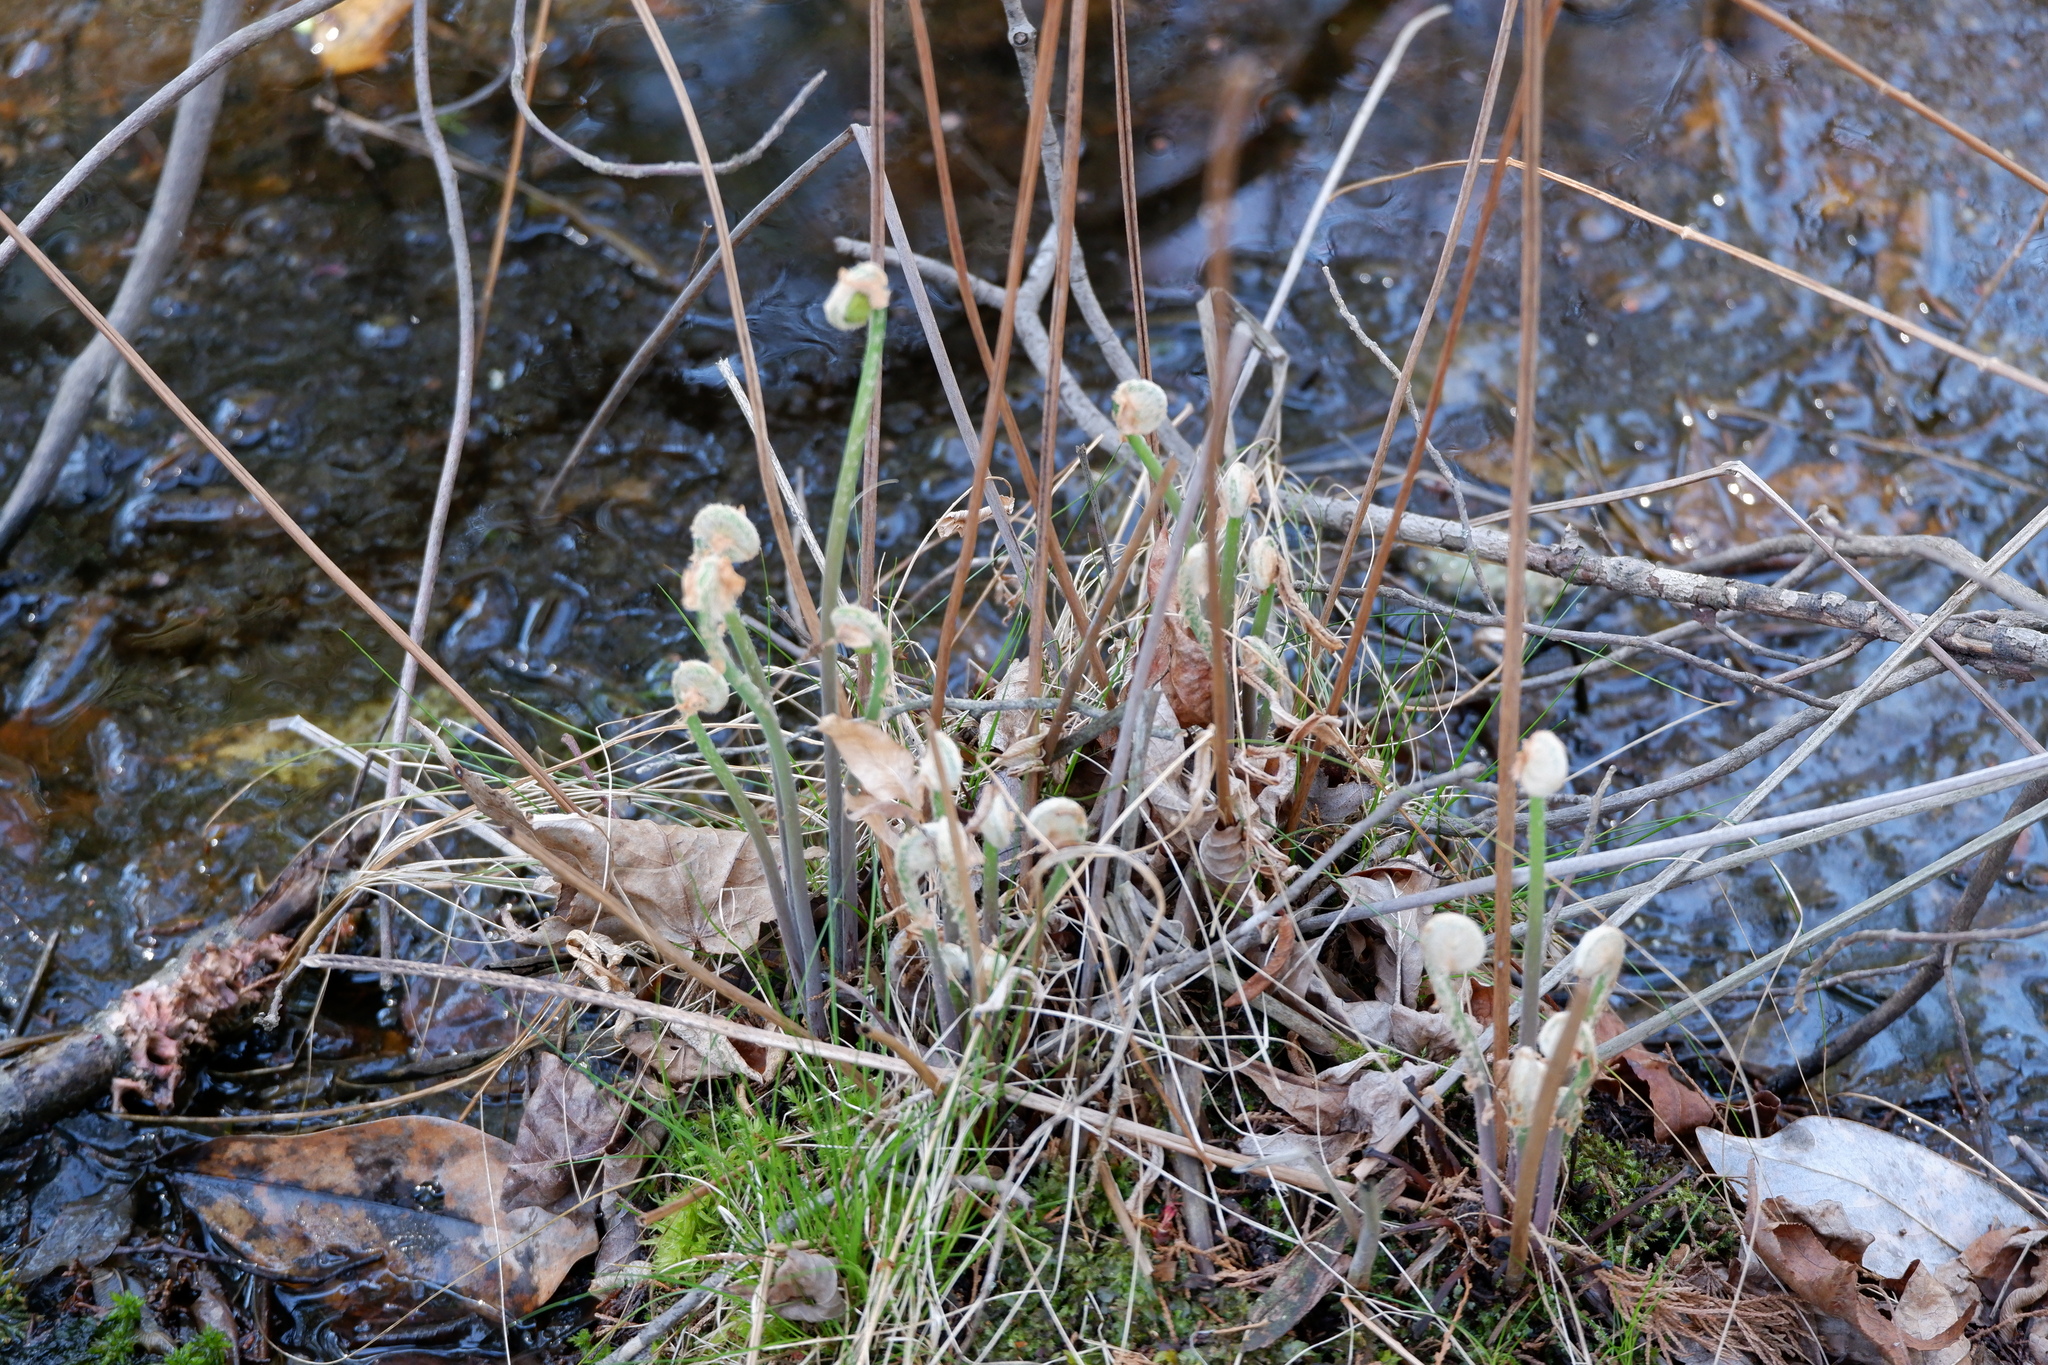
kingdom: Plantae
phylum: Tracheophyta
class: Polypodiopsida
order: Osmundales
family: Osmundaceae
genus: Osmunda
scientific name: Osmunda spectabilis
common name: American royal fern
